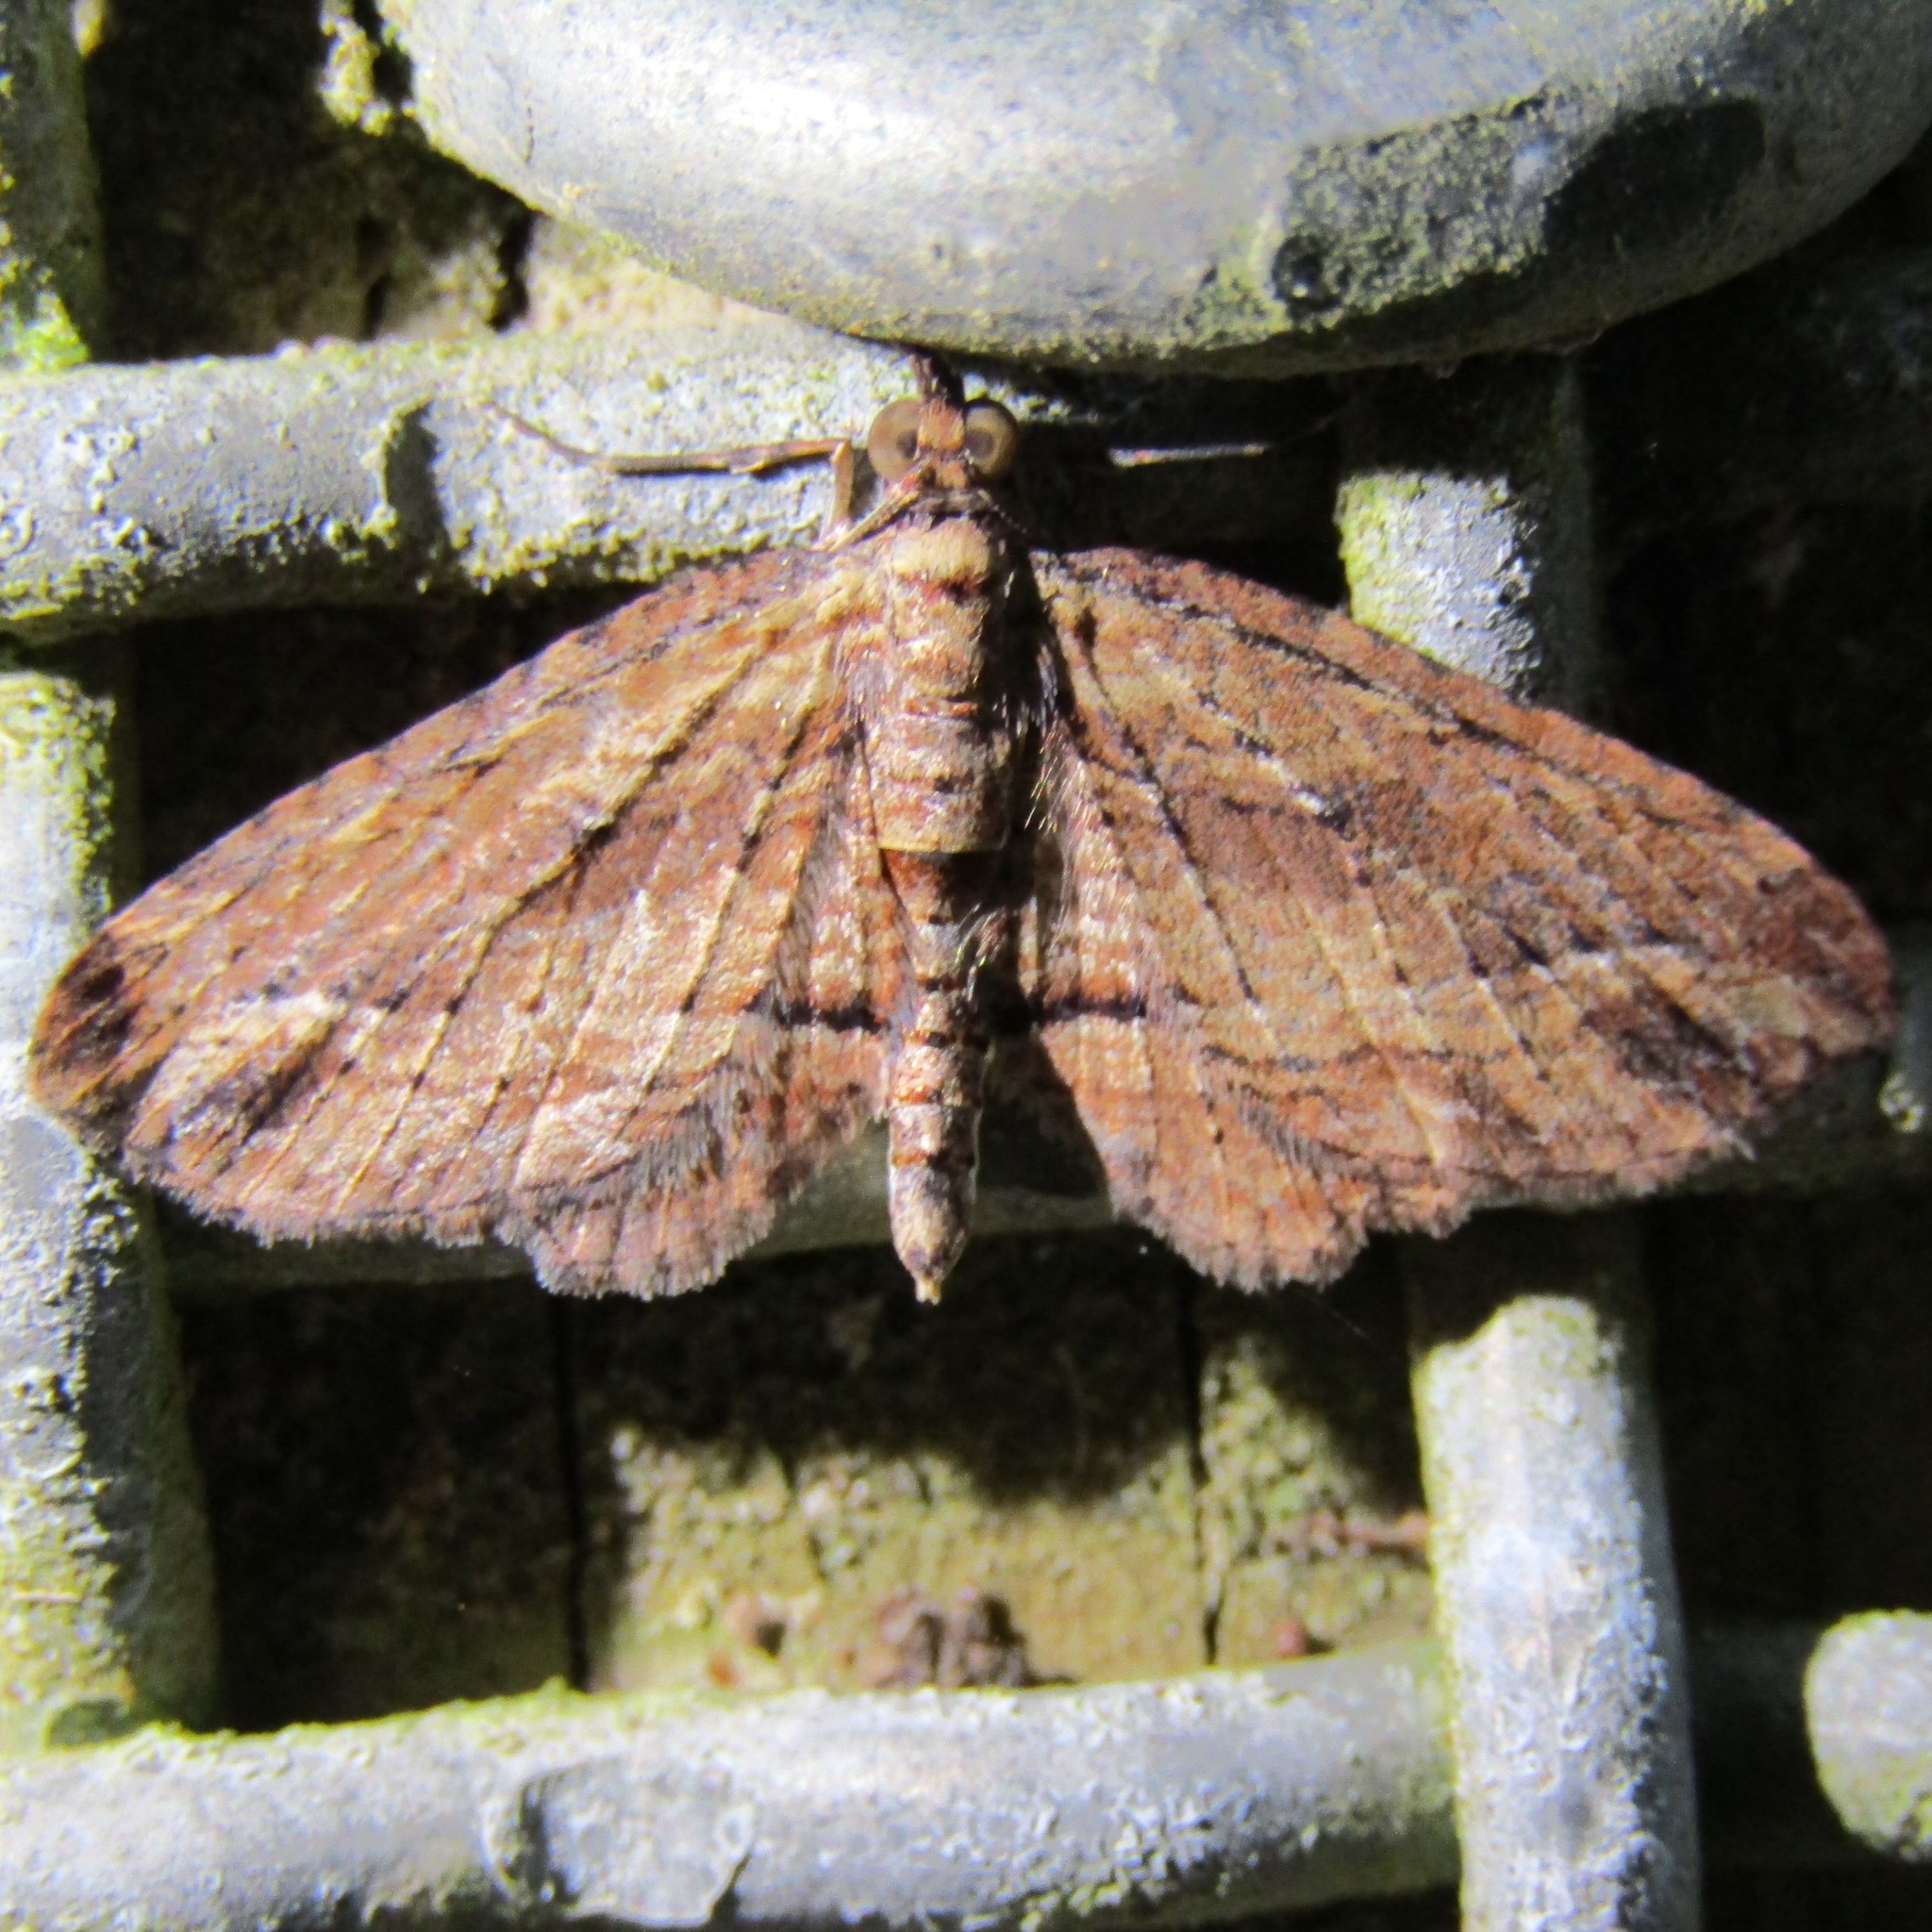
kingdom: Animalia
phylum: Arthropoda
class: Insecta
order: Lepidoptera
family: Geometridae
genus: Chloroclystis
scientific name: Chloroclystis filata
